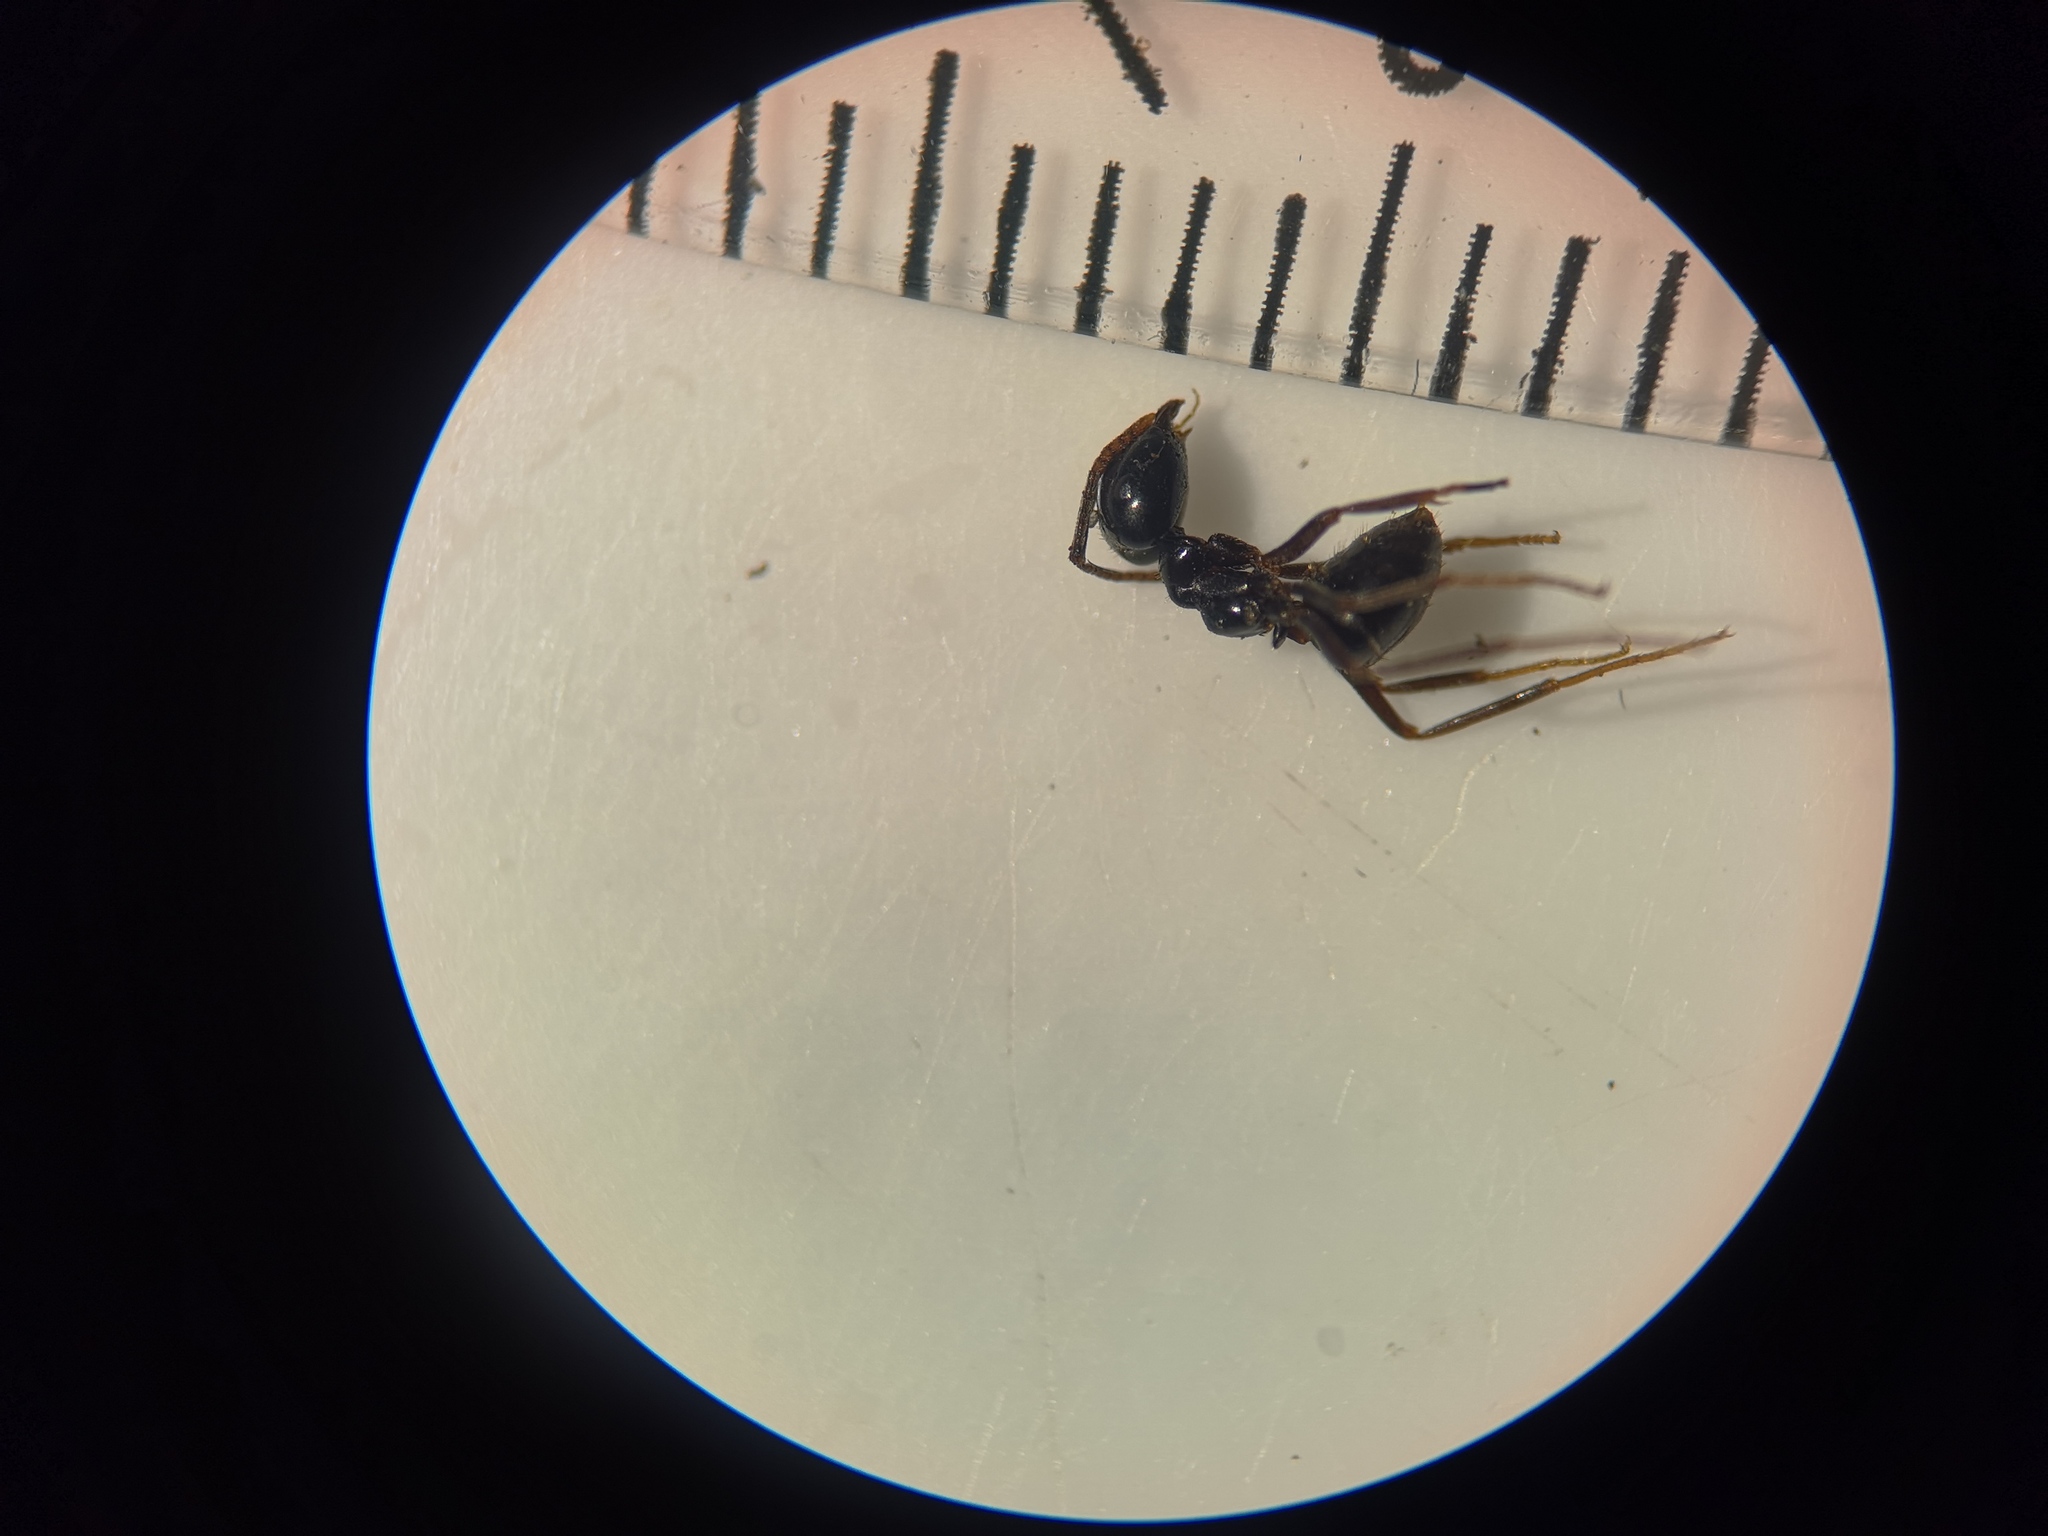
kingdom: Animalia
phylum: Arthropoda
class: Insecta
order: Hymenoptera
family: Formicidae
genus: Lasius
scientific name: Lasius fuliginosus
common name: Jet ant
